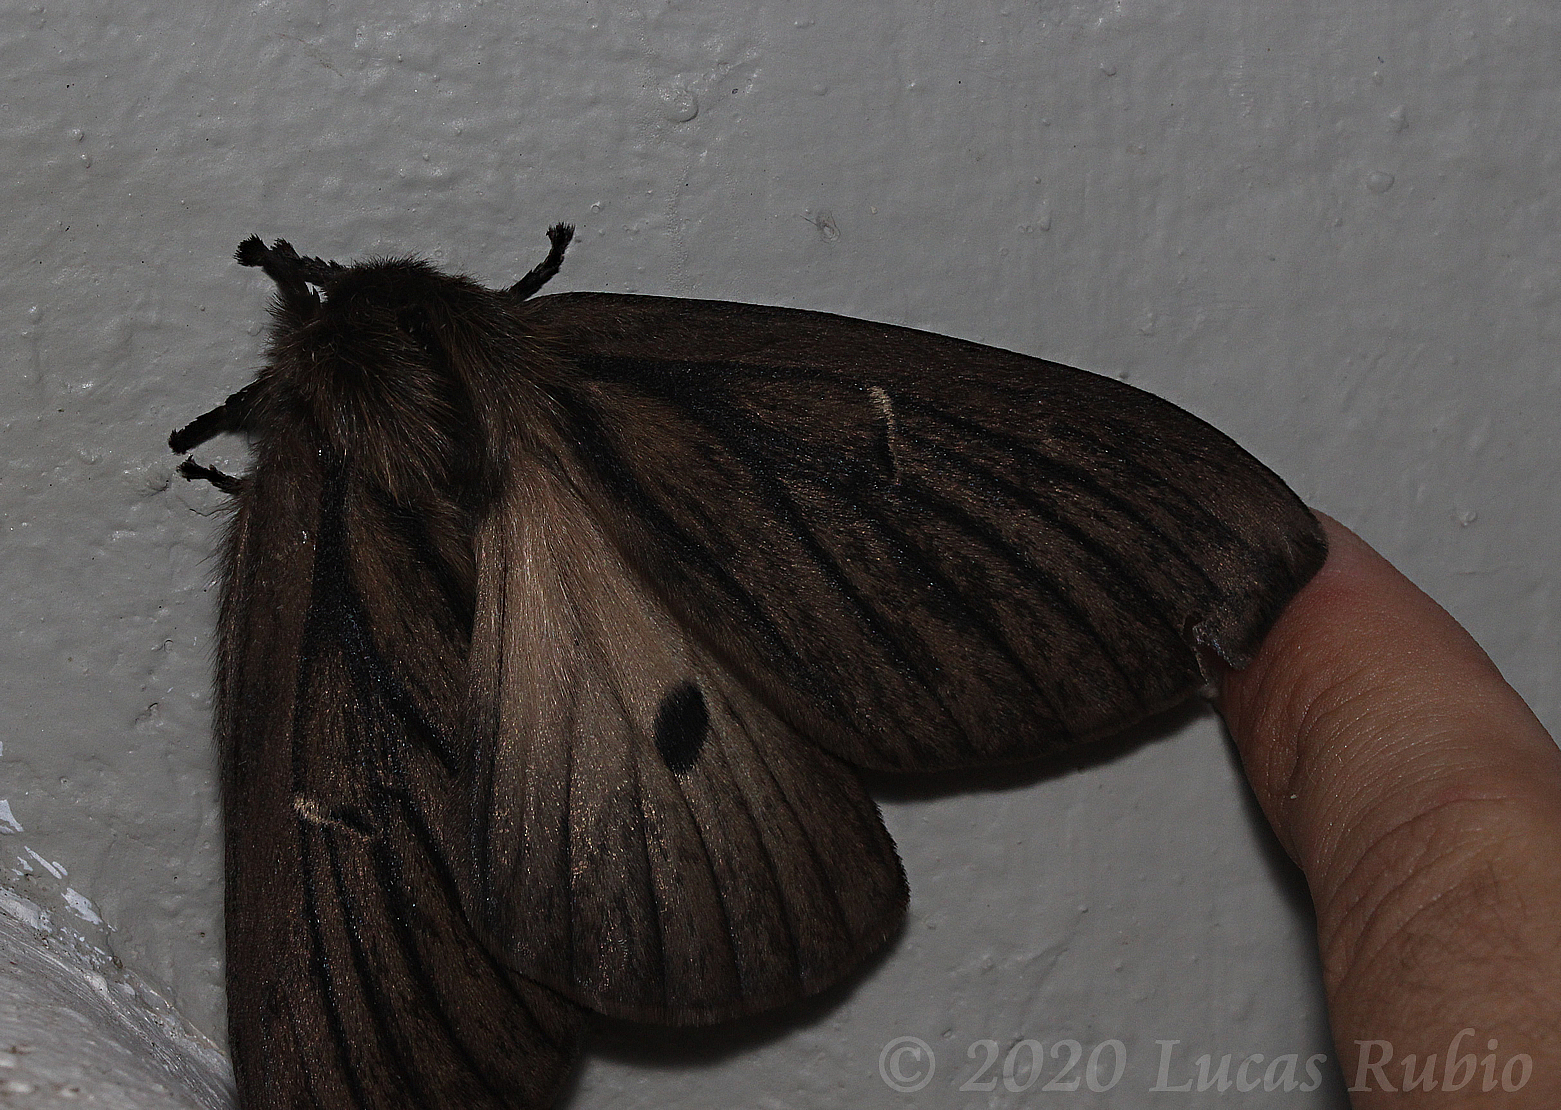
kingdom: Animalia
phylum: Arthropoda
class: Insecta
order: Lepidoptera
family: Saturniidae
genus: Eudyaria
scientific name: Eudyaria zeta
